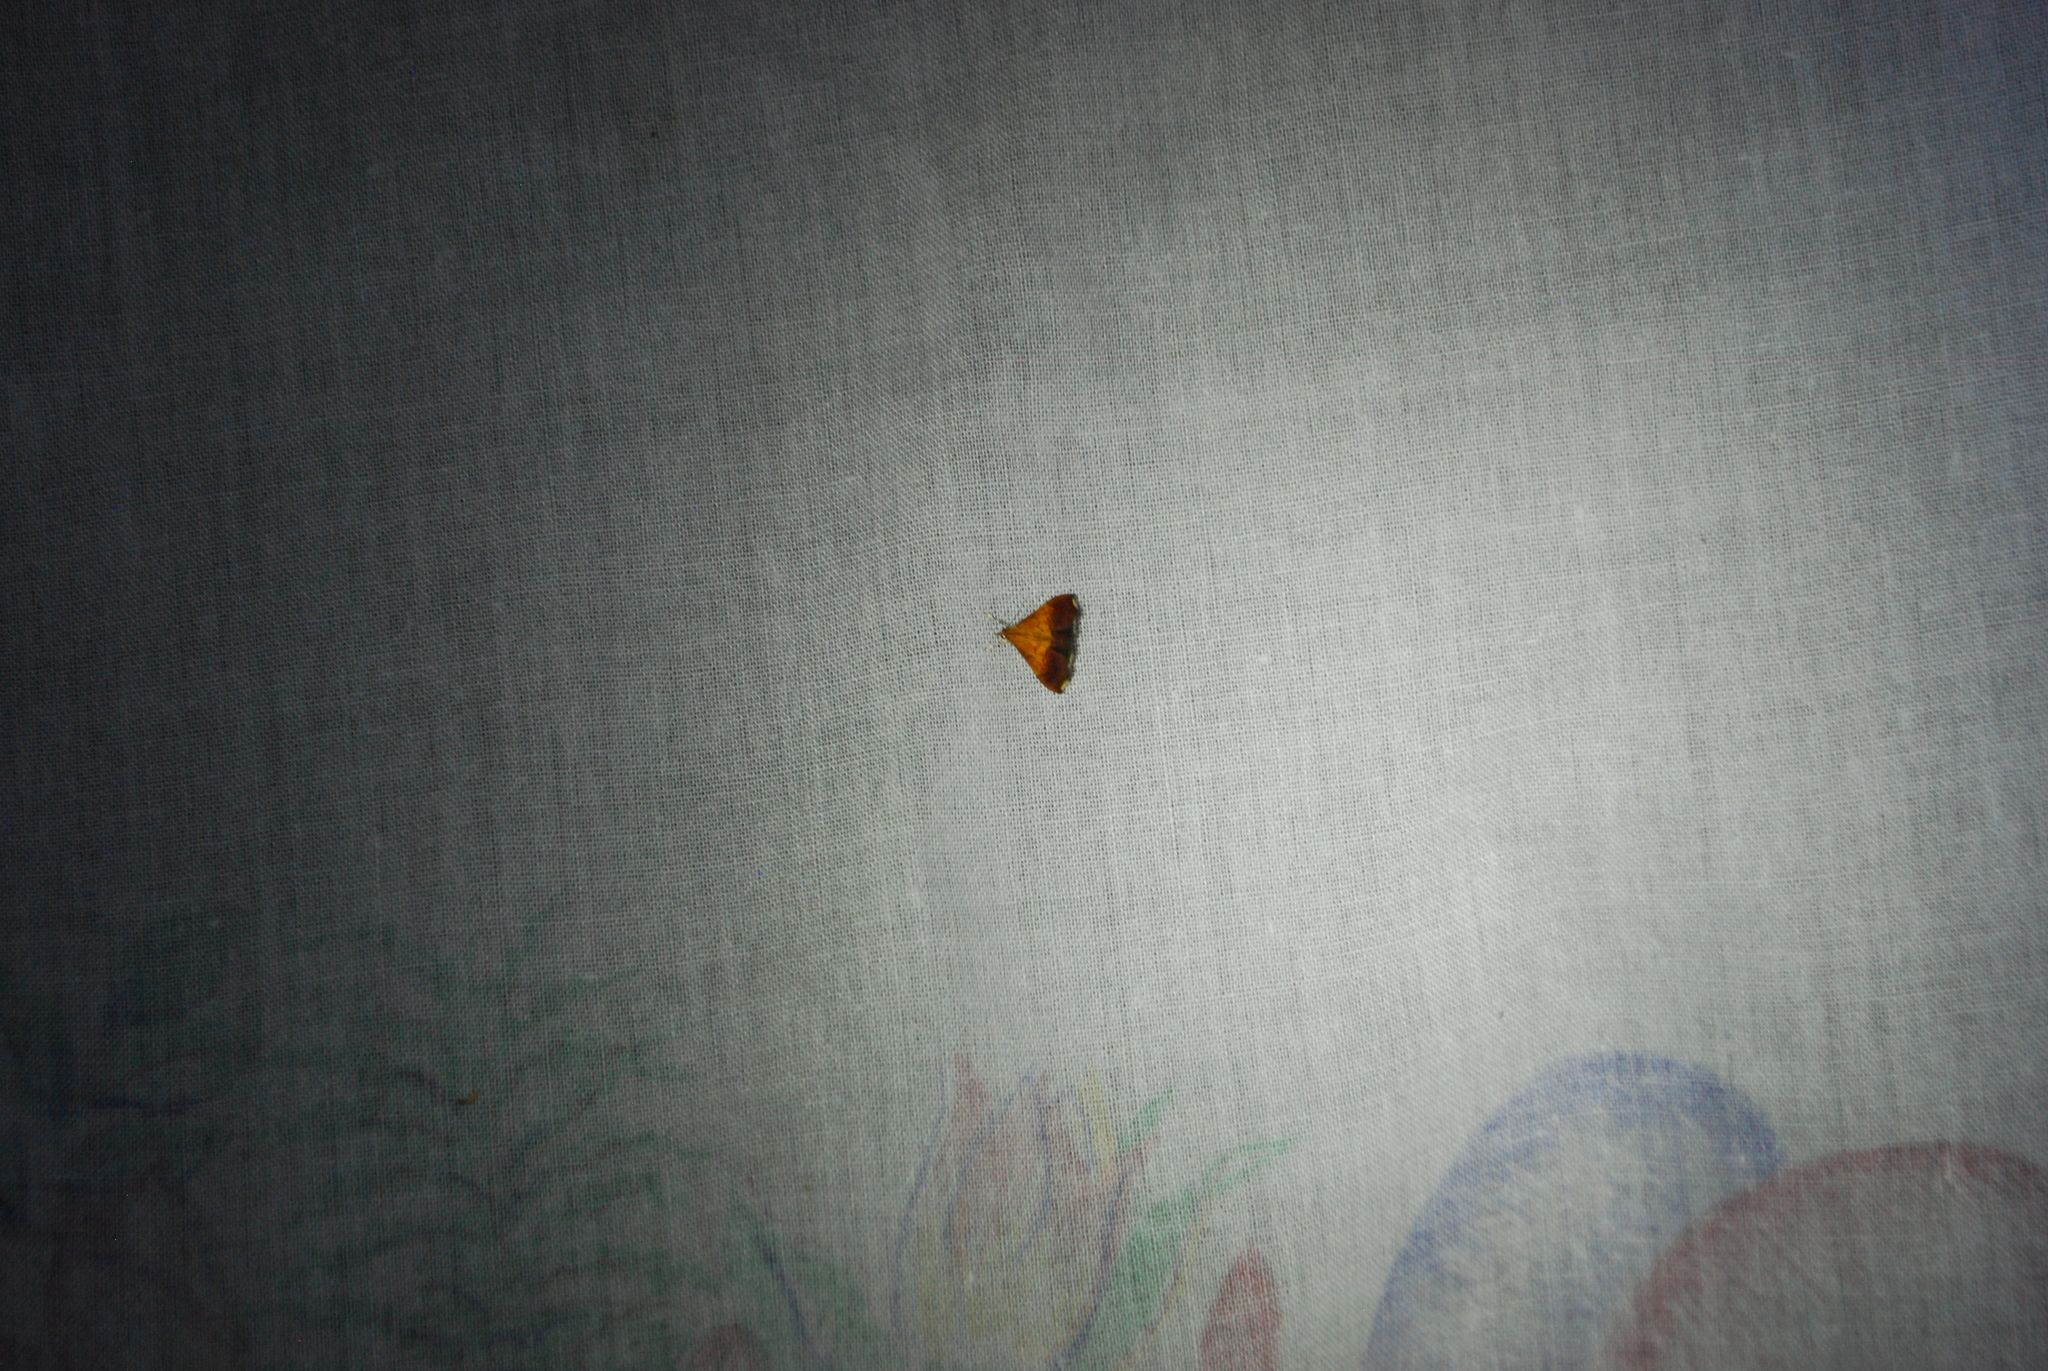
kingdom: Animalia
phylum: Arthropoda
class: Insecta
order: Lepidoptera
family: Crambidae
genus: Pyrausta
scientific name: Pyrausta bicoloralis
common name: Bicolored pyrausta moth
